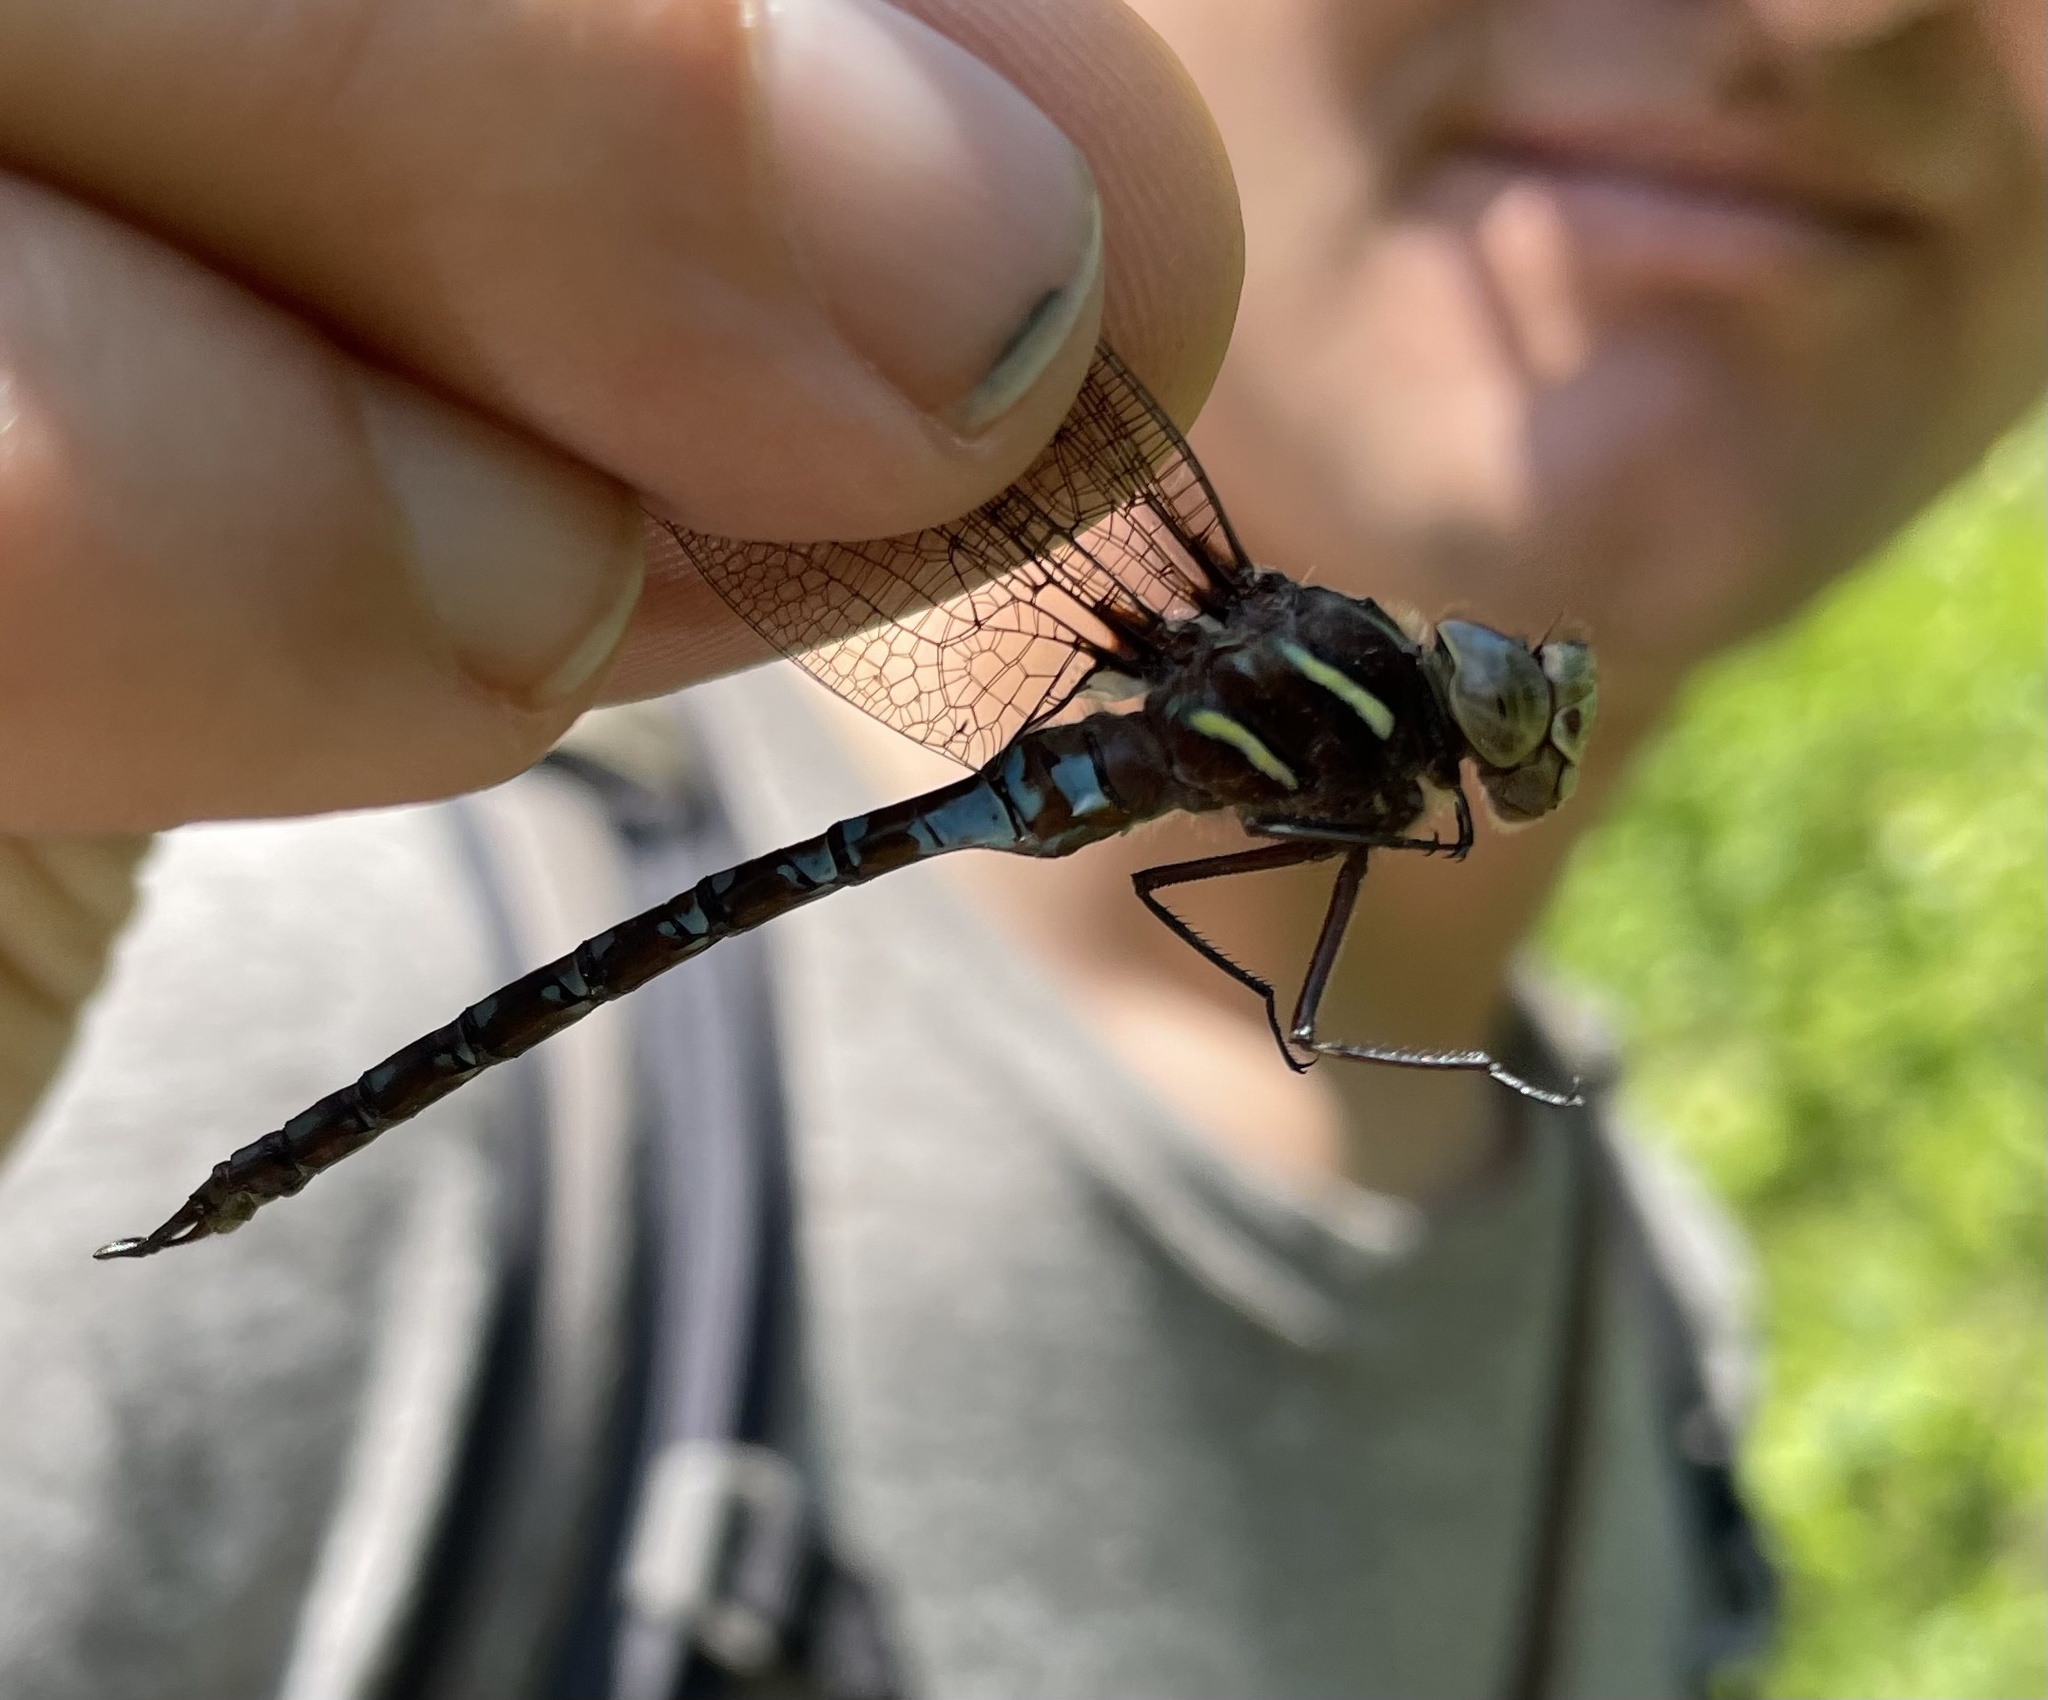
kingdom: Animalia
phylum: Arthropoda
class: Insecta
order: Odonata
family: Aeshnidae
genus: Basiaeschna
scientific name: Basiaeschna janata
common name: Springtime darner
